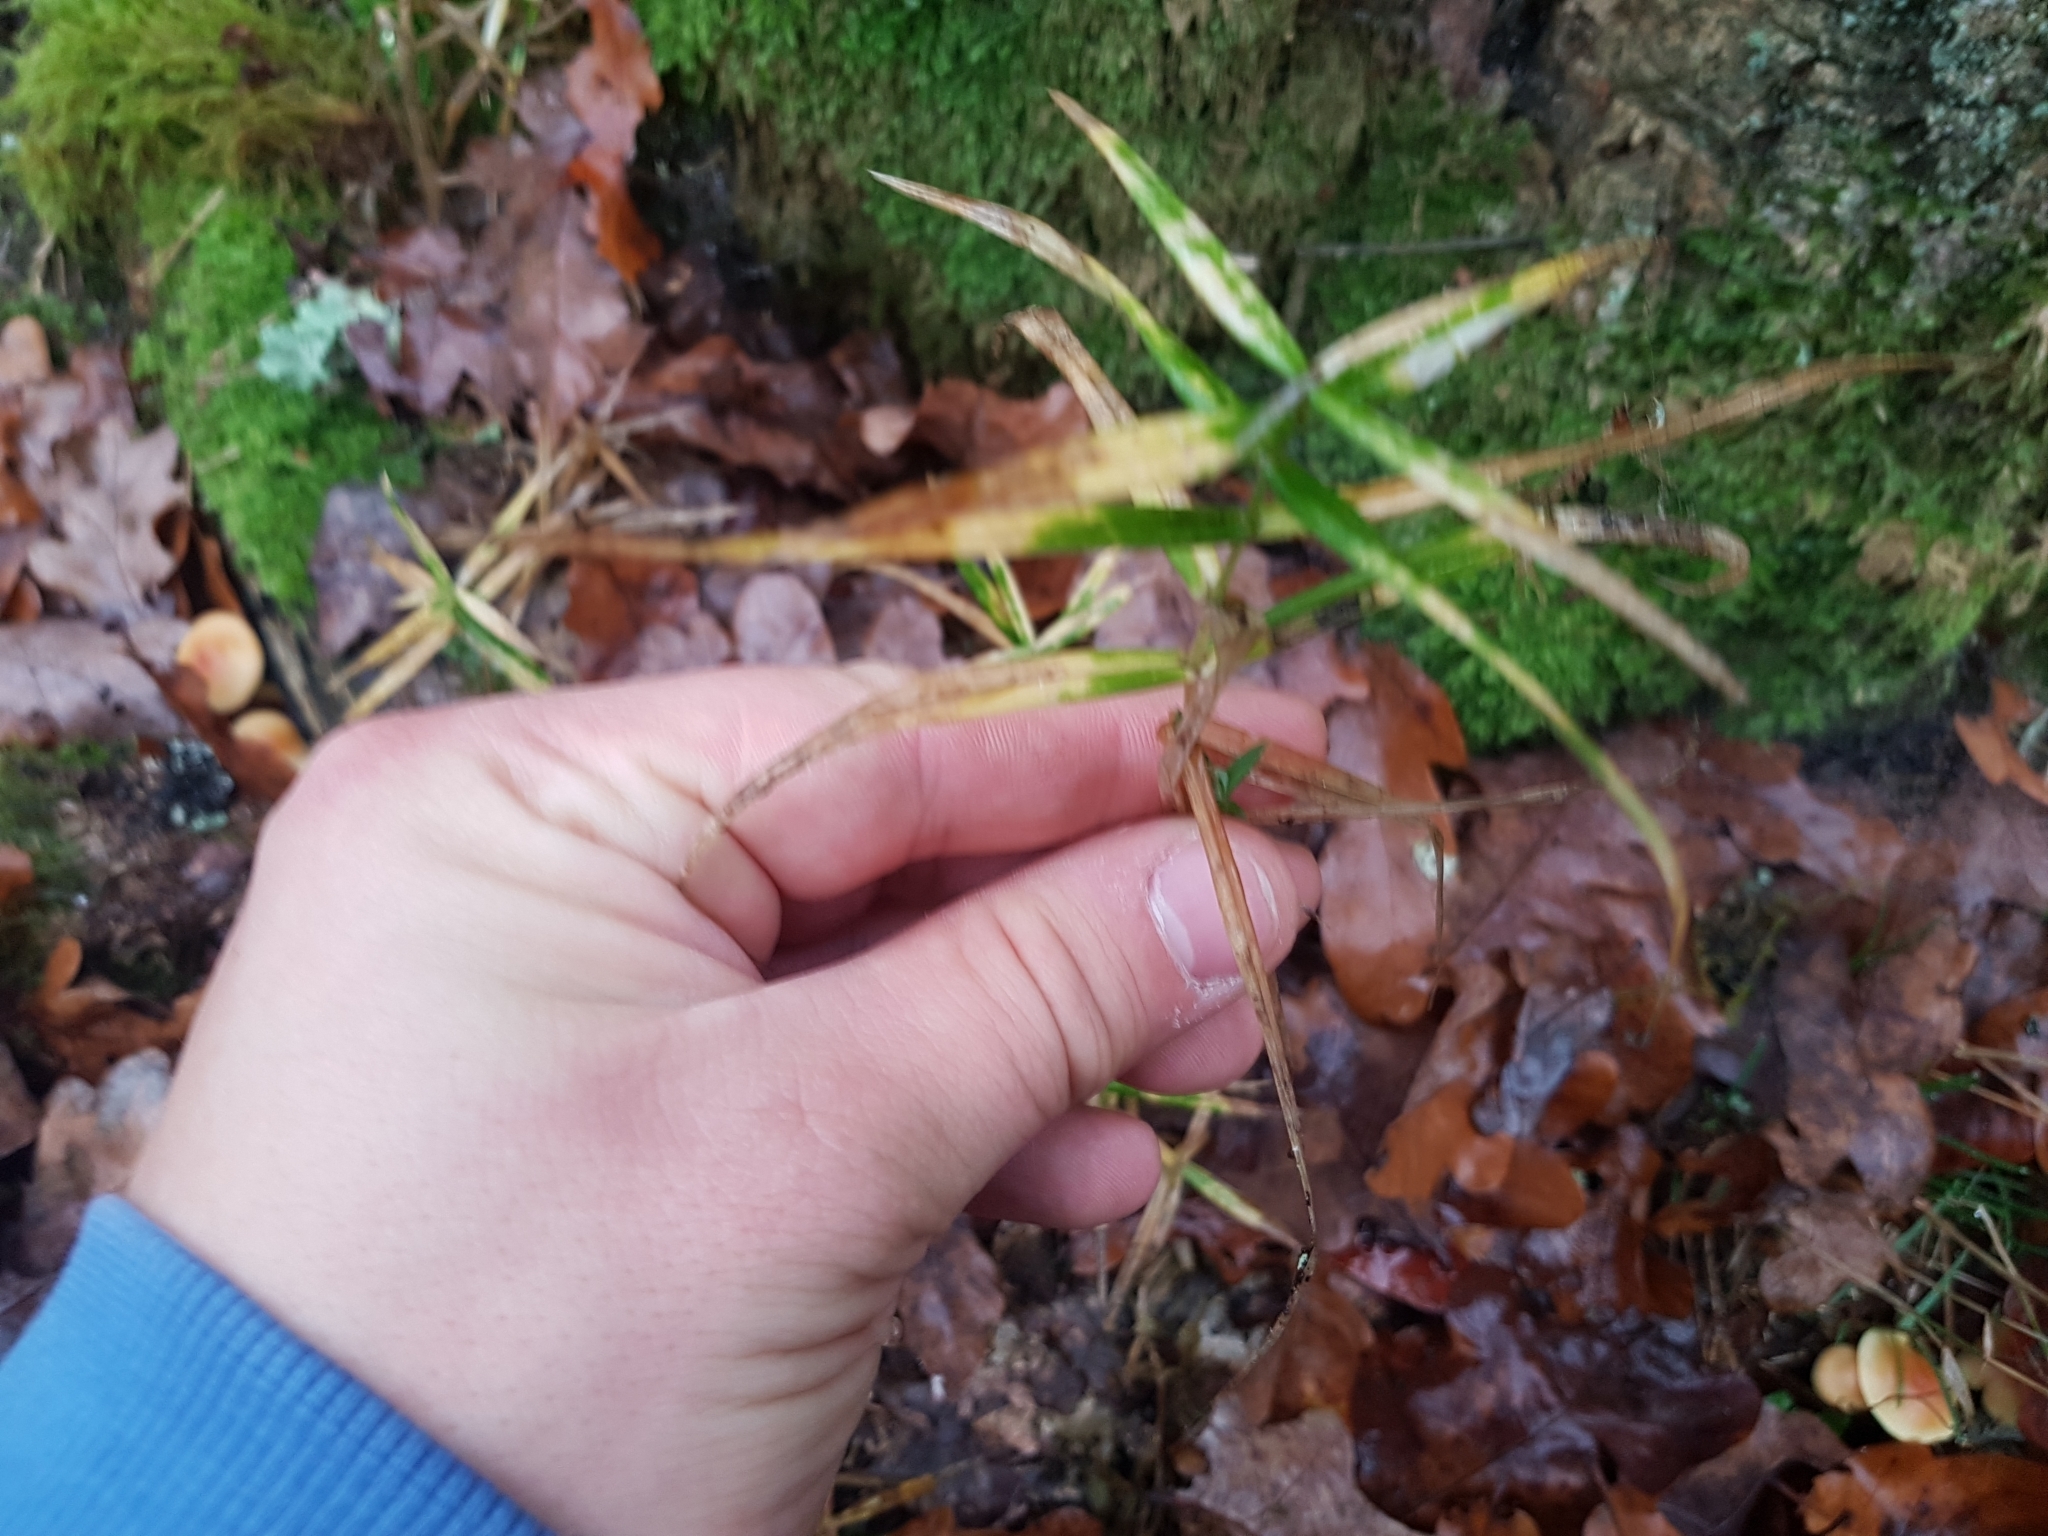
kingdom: Plantae
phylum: Tracheophyta
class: Magnoliopsida
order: Caryophyllales
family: Caryophyllaceae
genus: Rabelera
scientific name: Rabelera holostea
